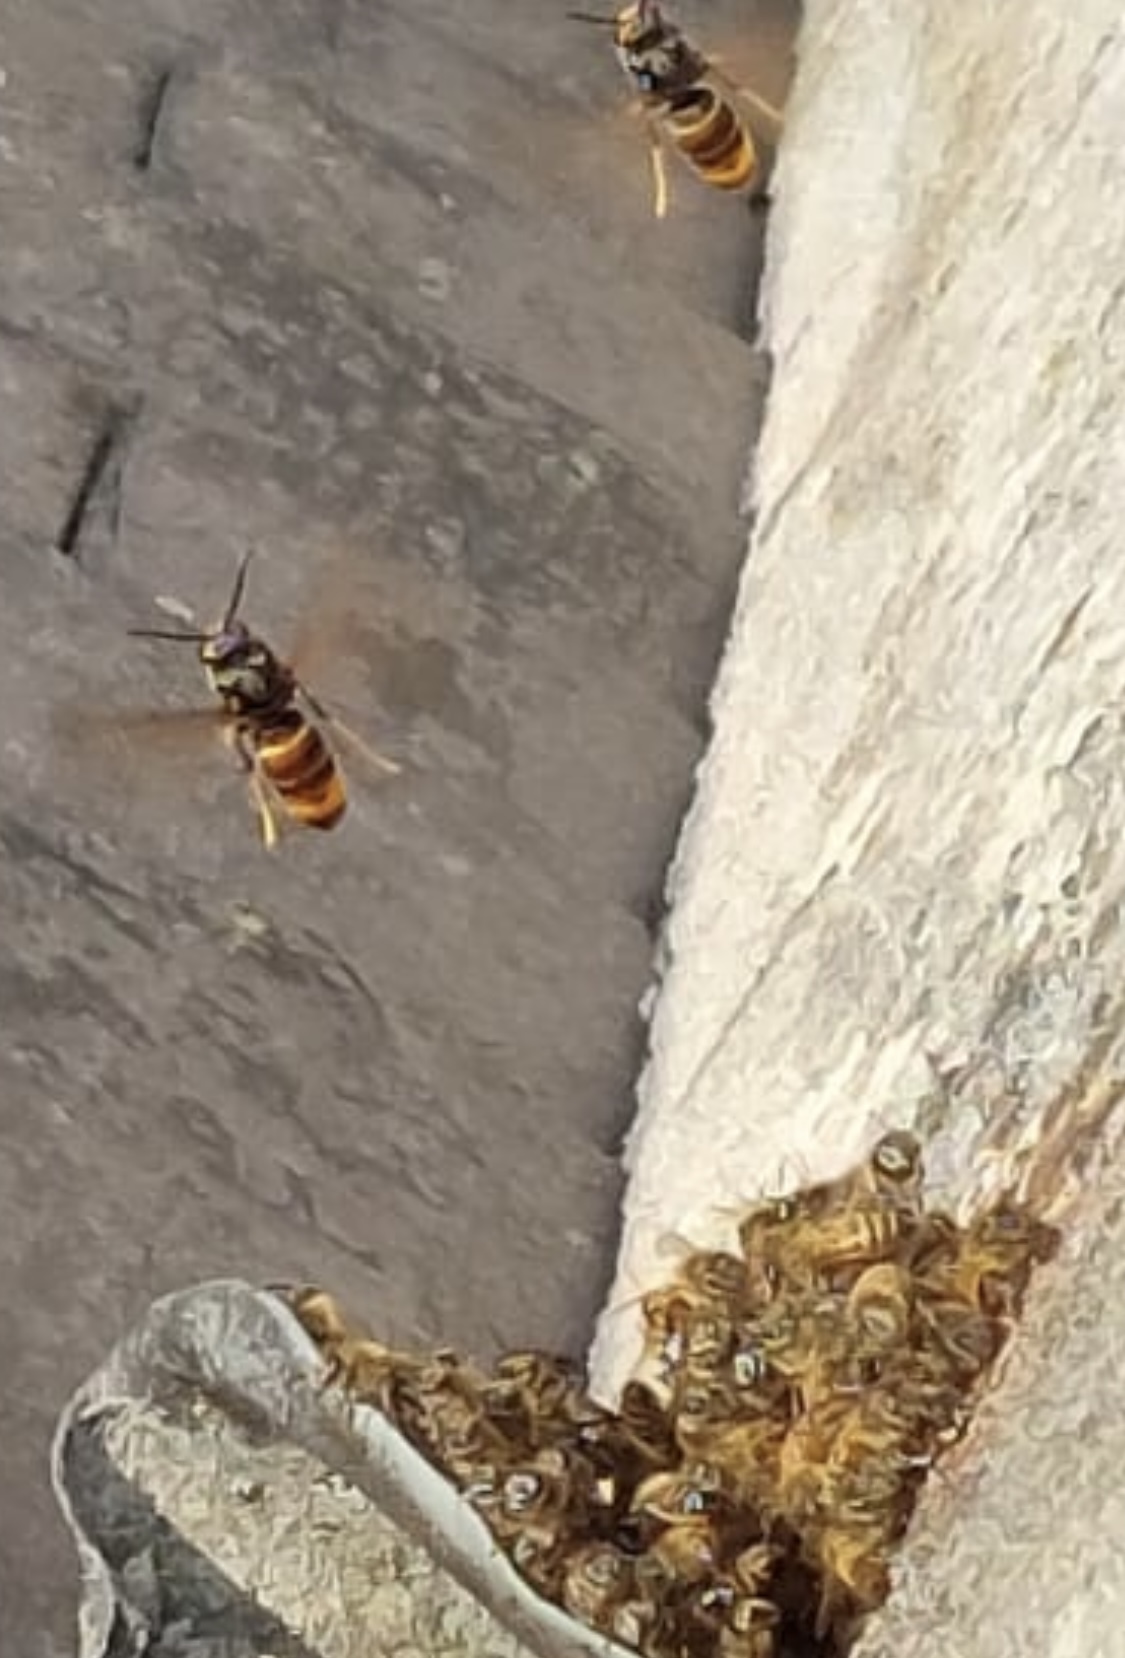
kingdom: Animalia
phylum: Arthropoda
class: Insecta
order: Hymenoptera
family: Vespidae
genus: Vespa
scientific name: Vespa velutina
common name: Asian hornet
